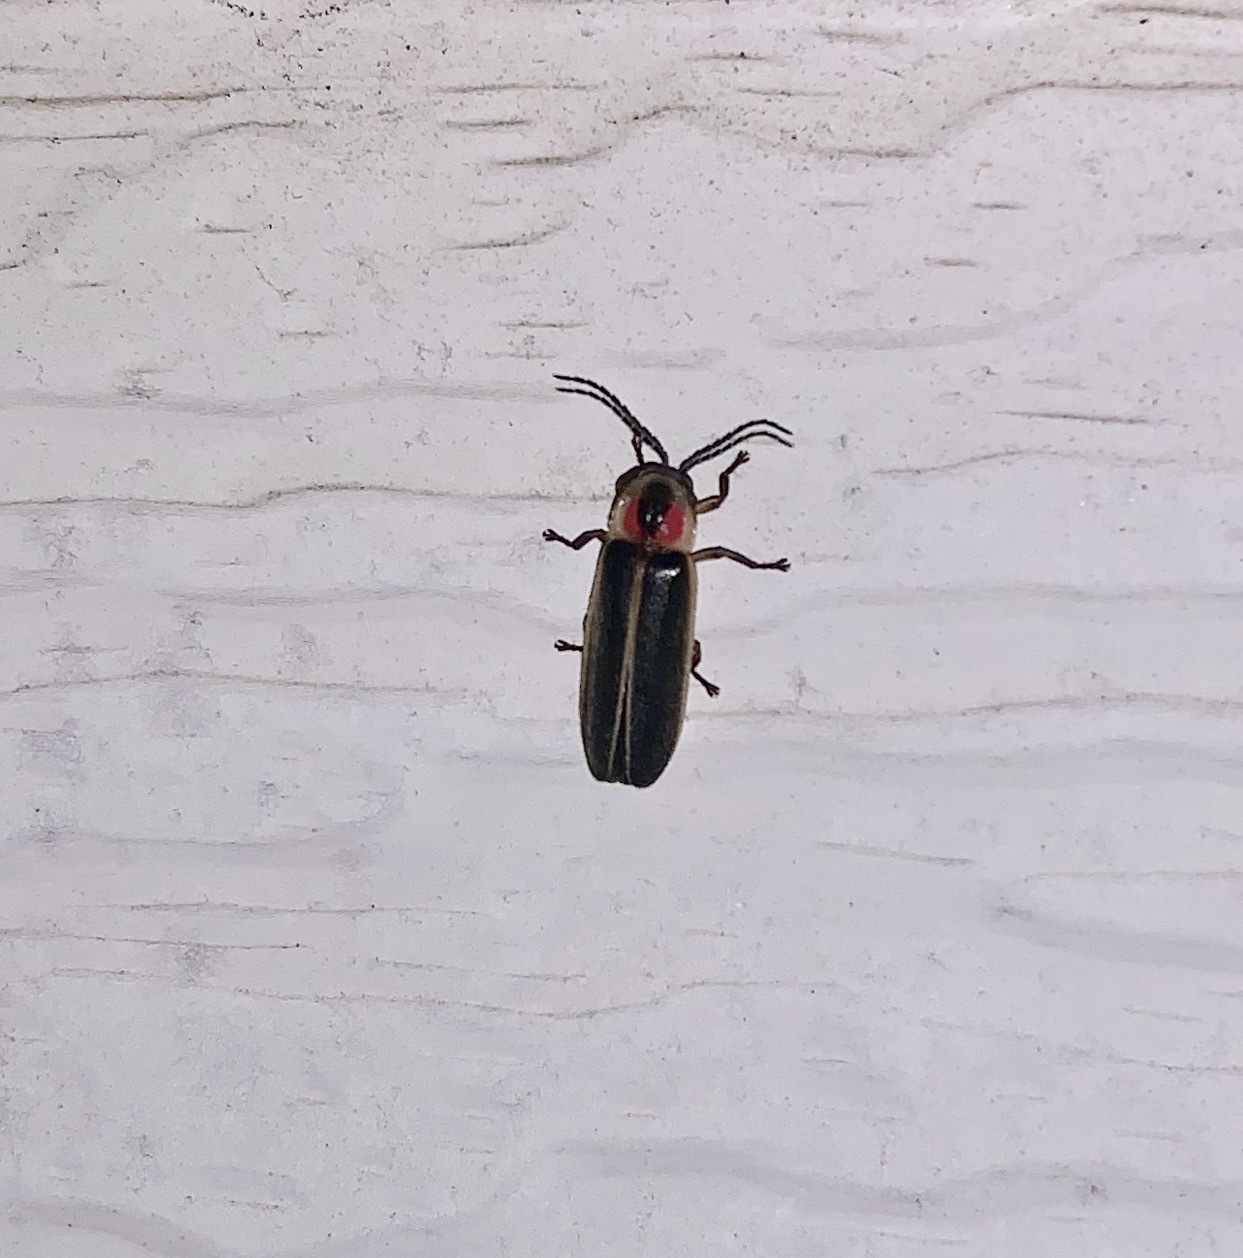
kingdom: Animalia
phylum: Arthropoda
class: Insecta
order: Coleoptera
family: Lampyridae
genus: Photinus
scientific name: Photinus pyralis
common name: Big dipper firefly
